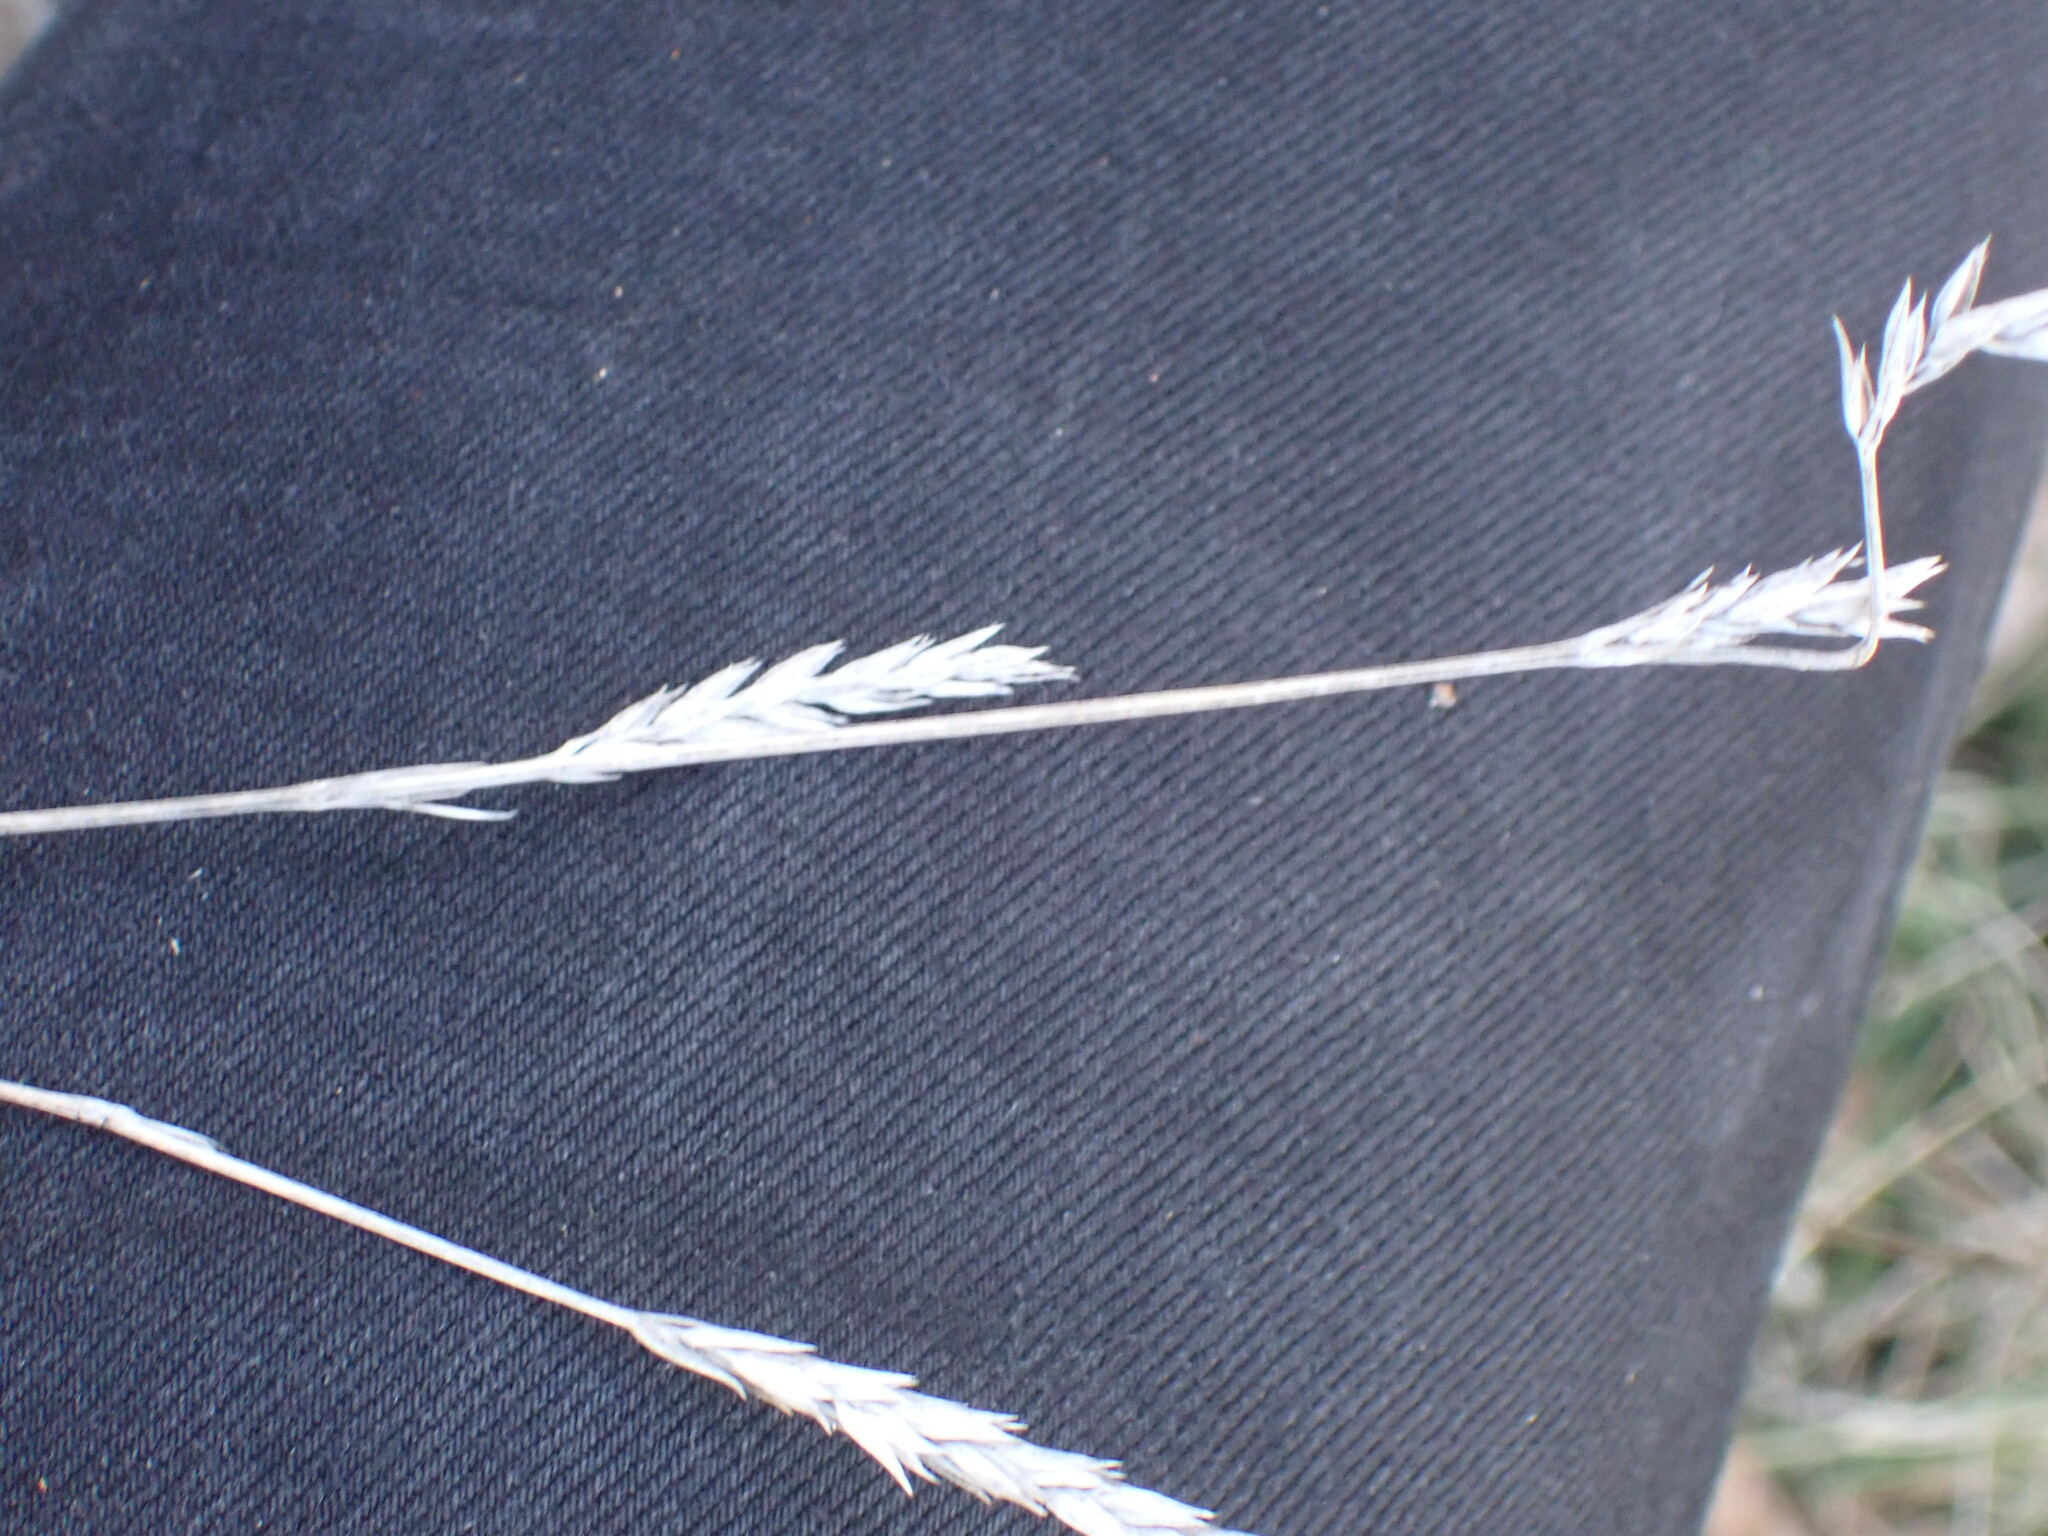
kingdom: Plantae
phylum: Tracheophyta
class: Magnoliopsida
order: Gentianales
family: Rubiaceae
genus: Crucianella
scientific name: Crucianella angustifolia
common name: Narrowleaf crucianella
